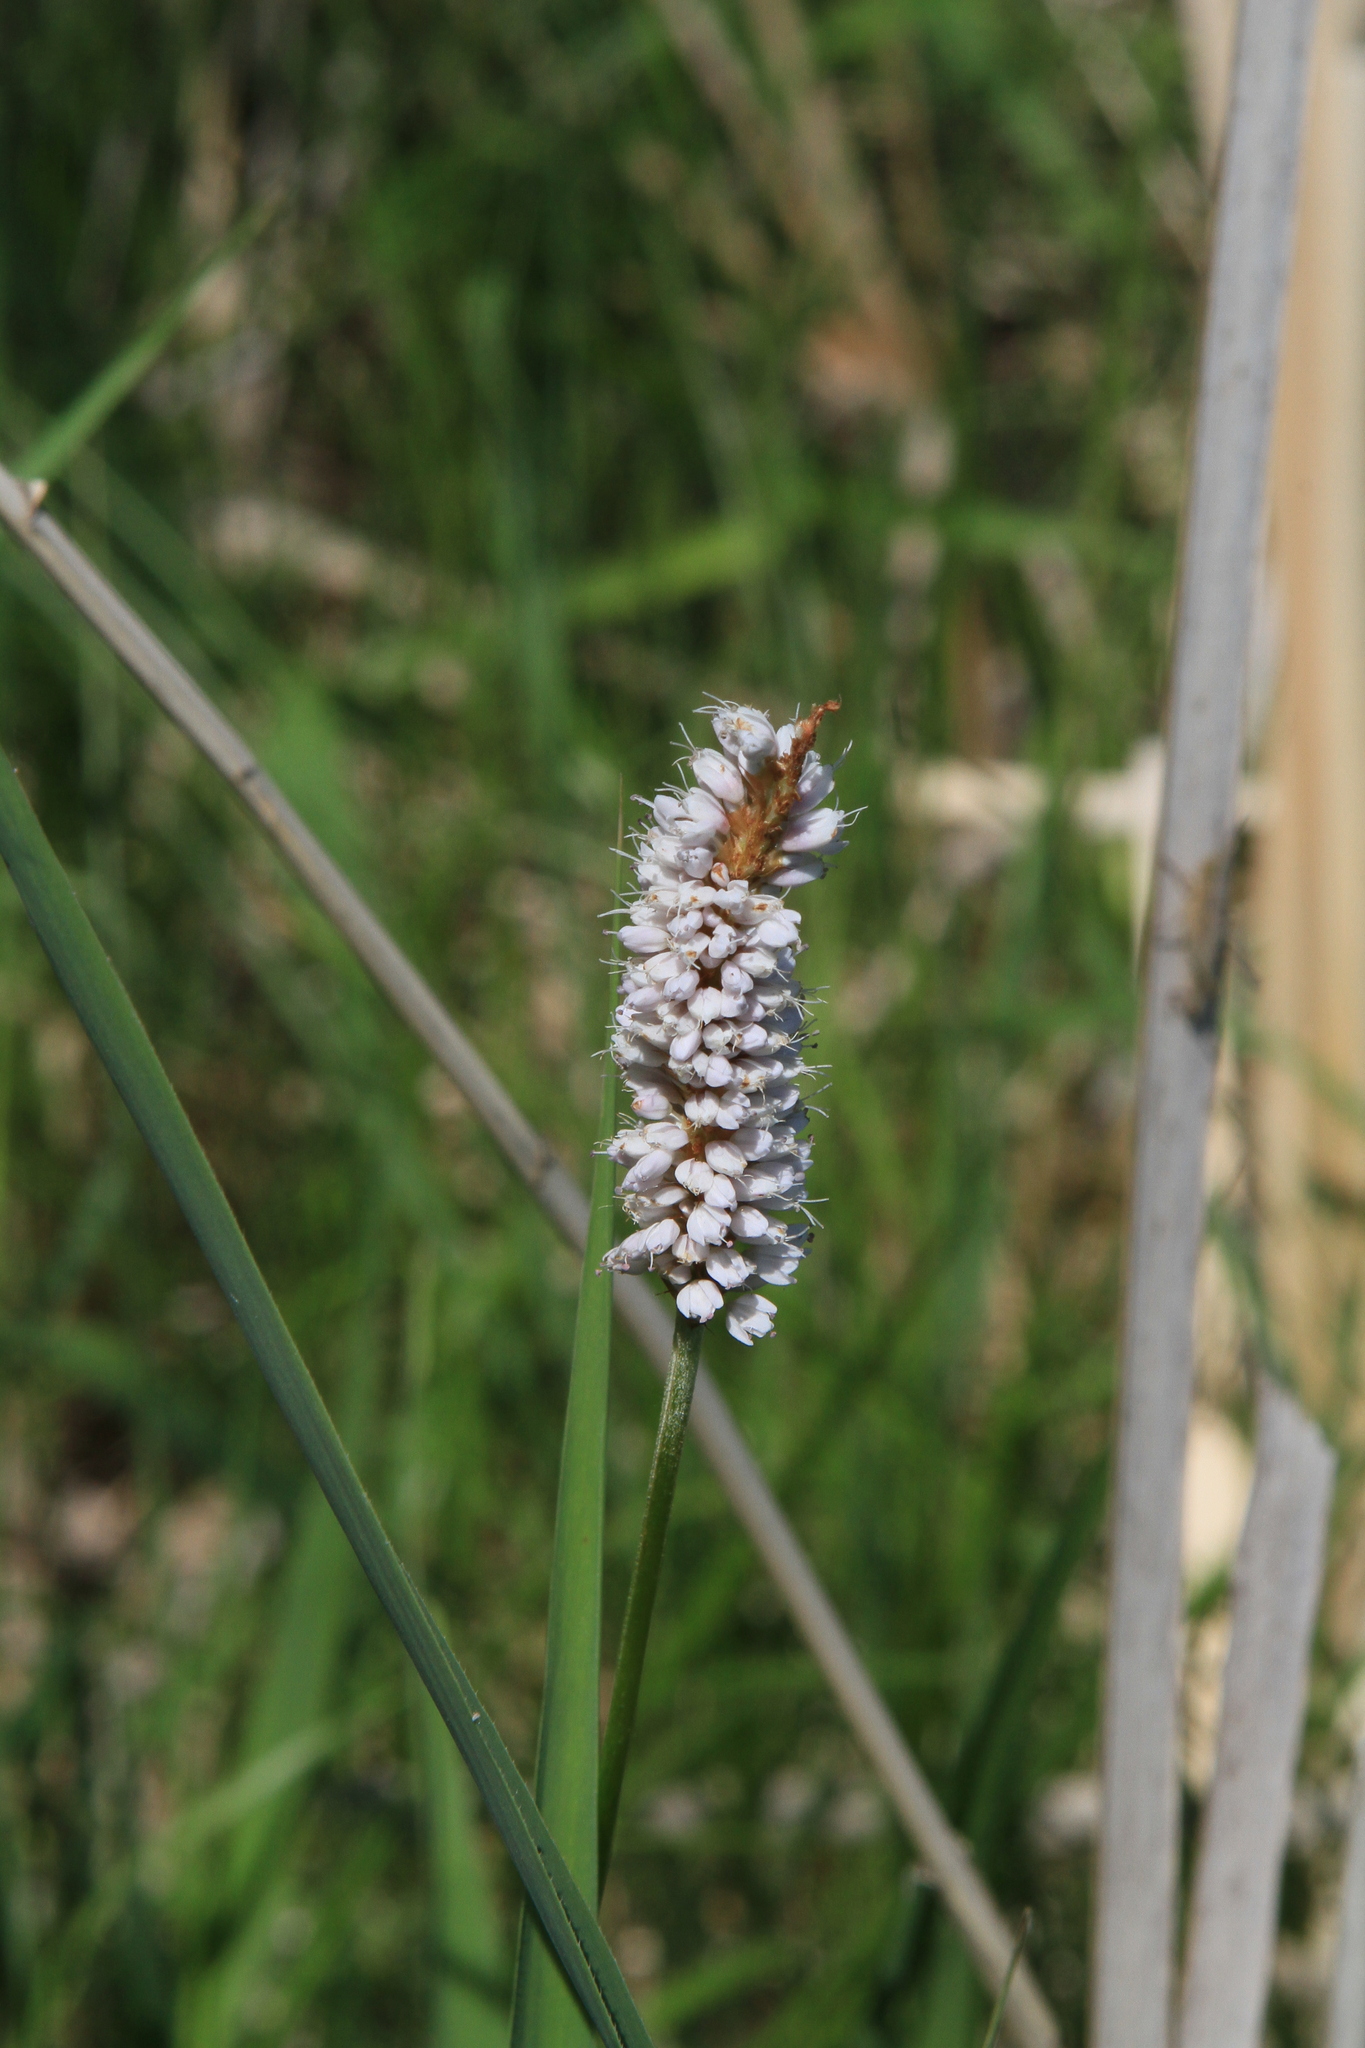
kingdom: Plantae
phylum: Tracheophyta
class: Magnoliopsida
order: Caryophyllales
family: Polygonaceae
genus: Bistorta
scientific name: Bistorta officinalis
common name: Common bistort
